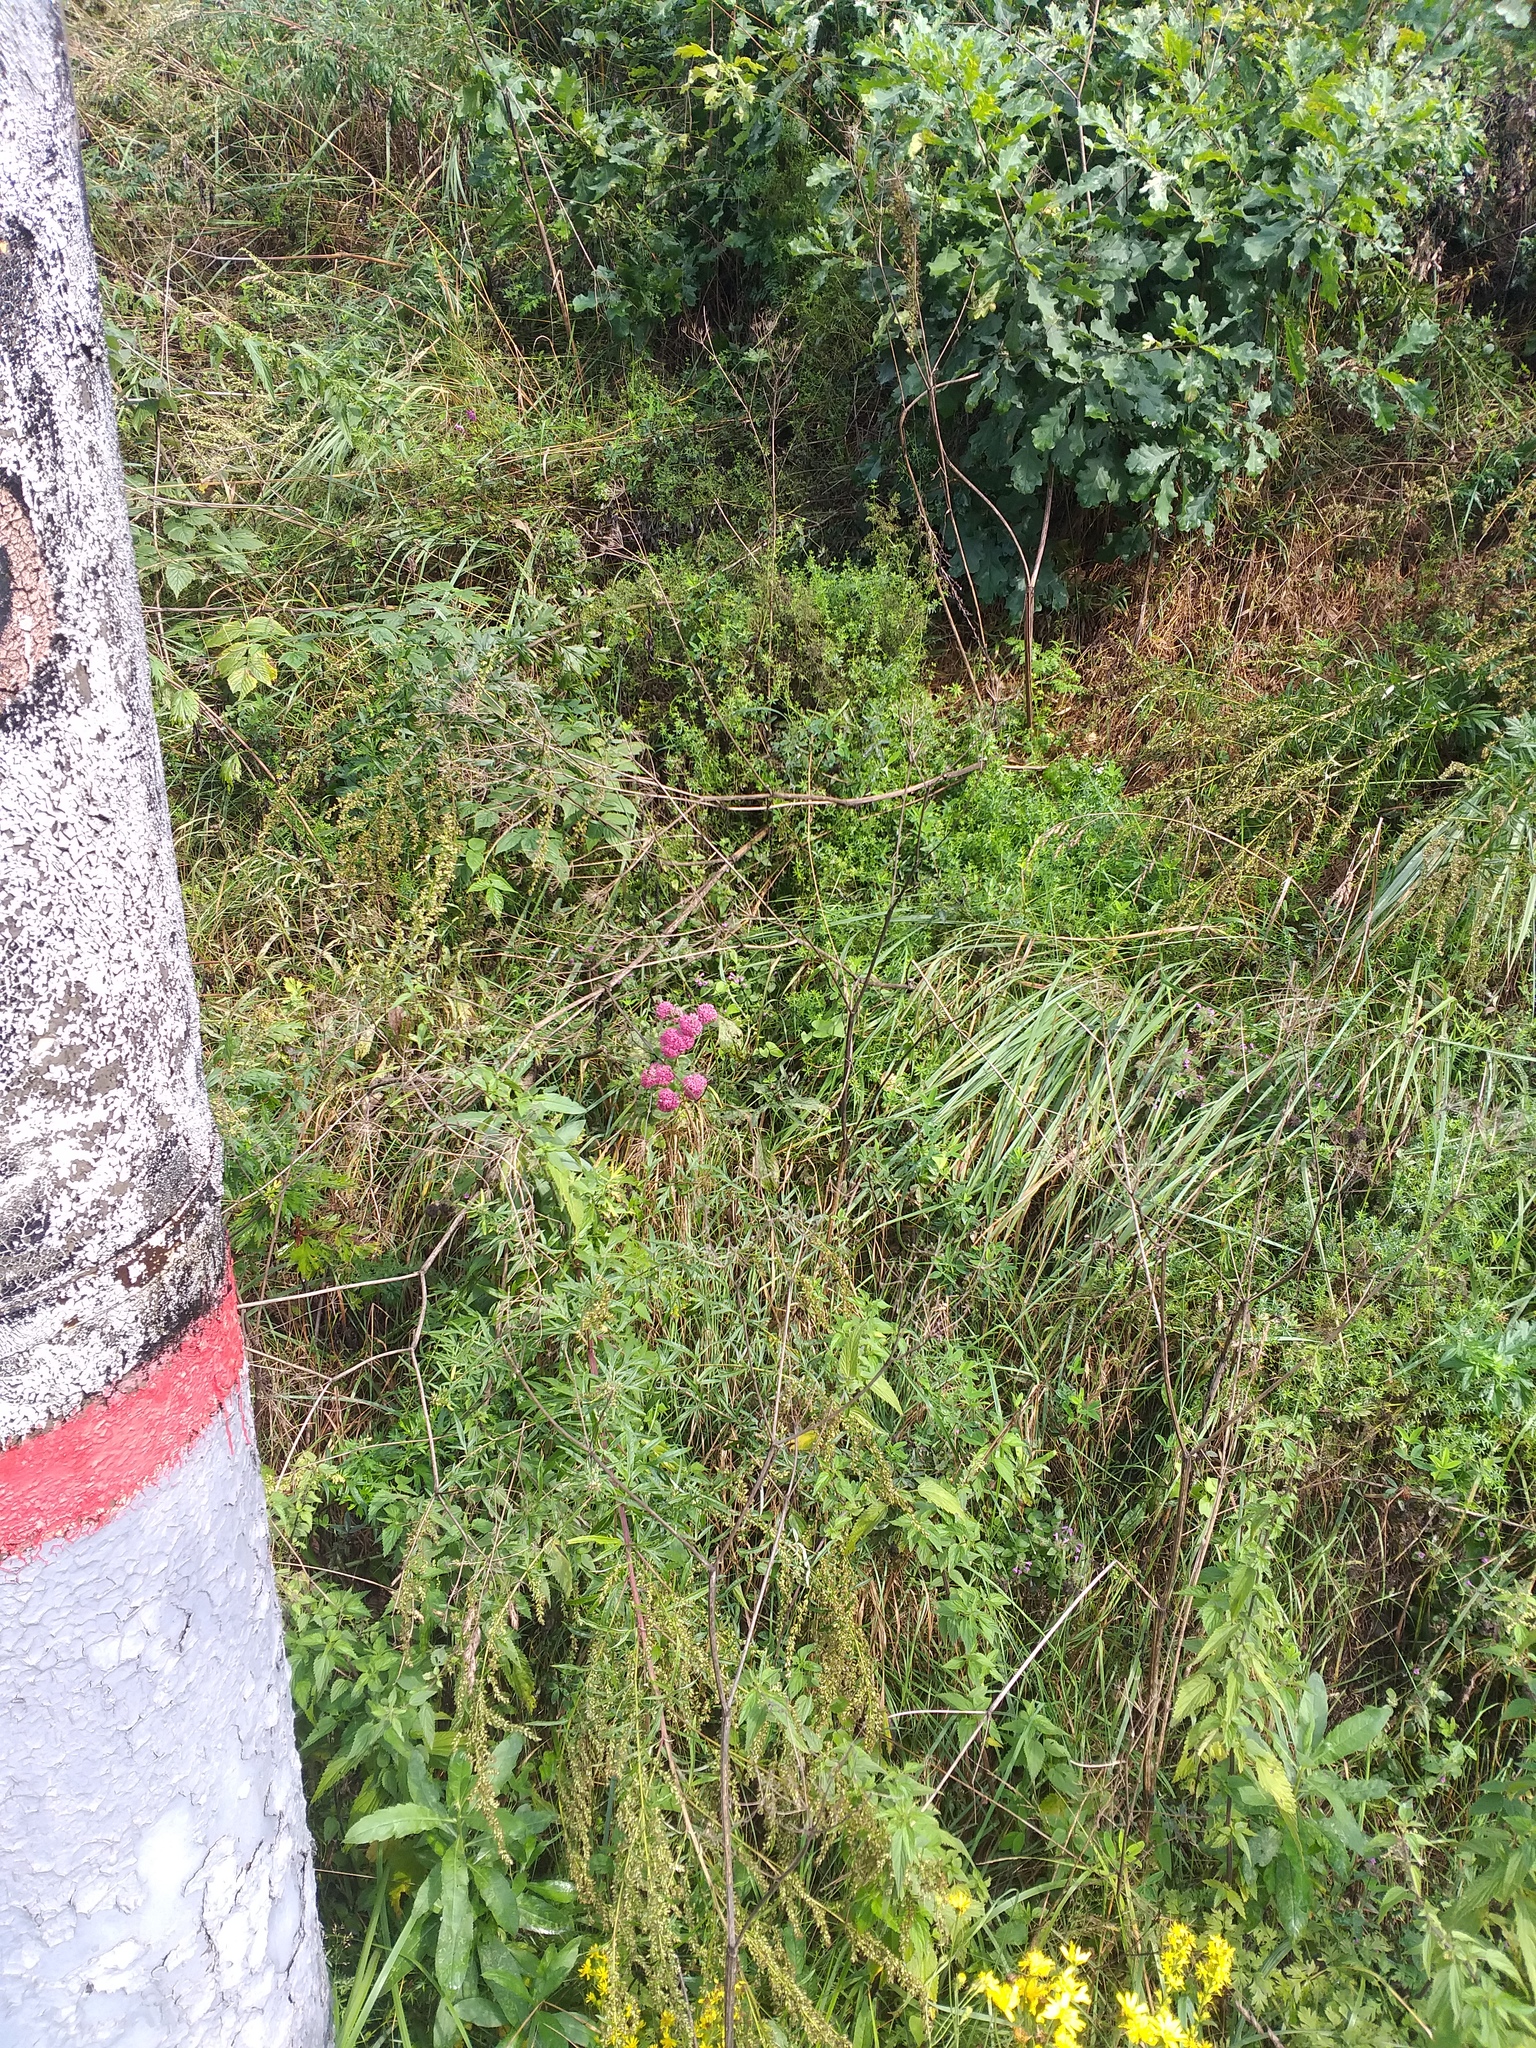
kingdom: Plantae
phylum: Tracheophyta
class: Magnoliopsida
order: Saxifragales
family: Crassulaceae
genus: Hylotelephium
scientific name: Hylotelephium telephium
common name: Live-forever
